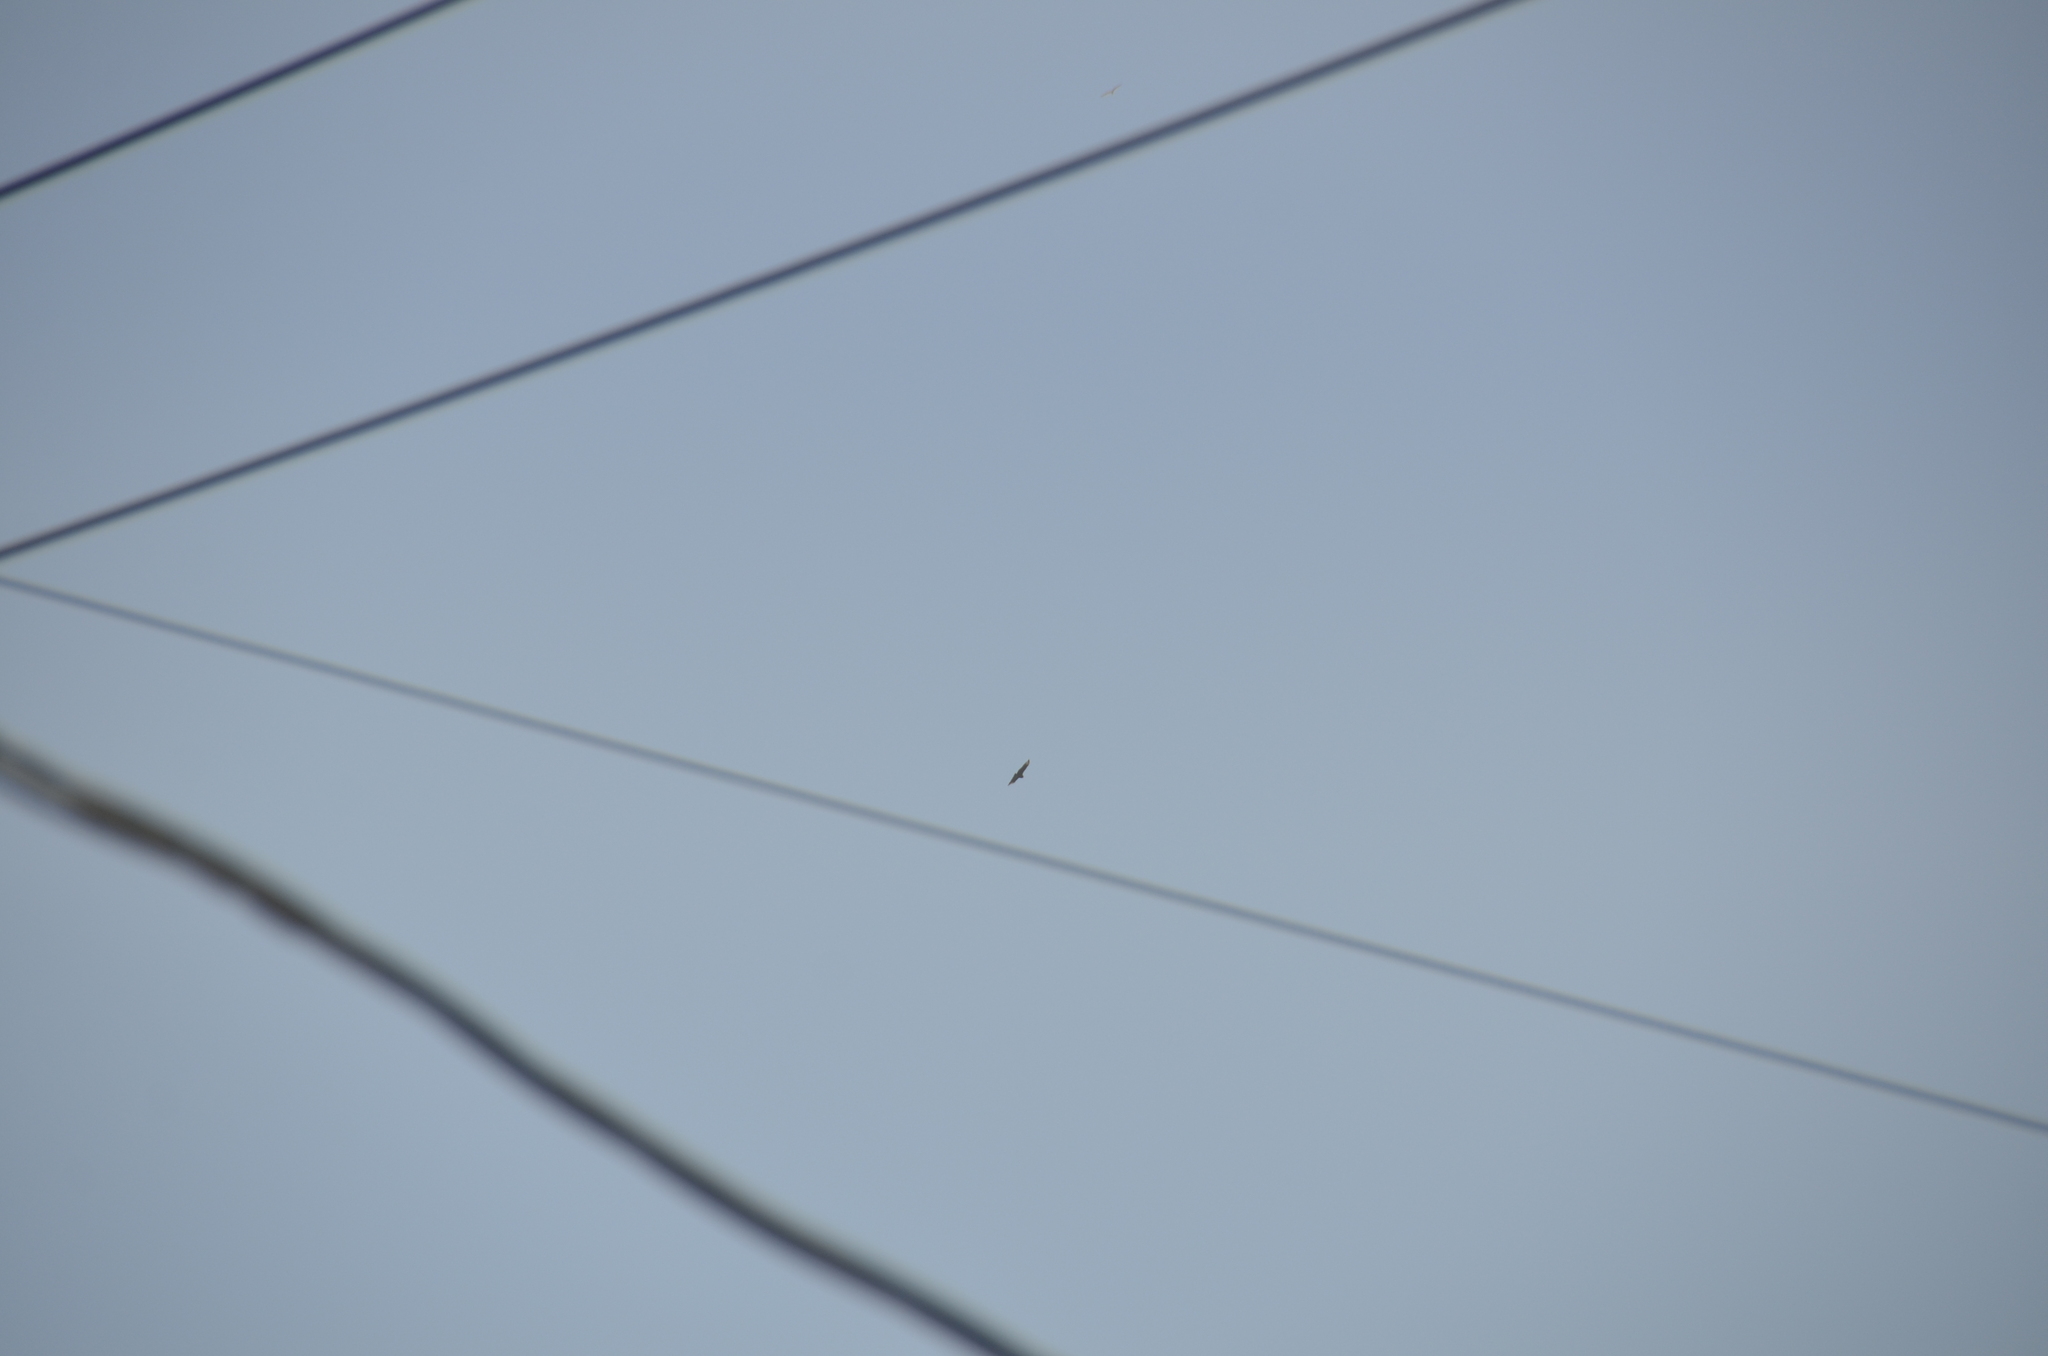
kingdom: Animalia
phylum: Chordata
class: Aves
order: Accipitriformes
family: Cathartidae
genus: Coragyps
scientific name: Coragyps atratus
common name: Black vulture
